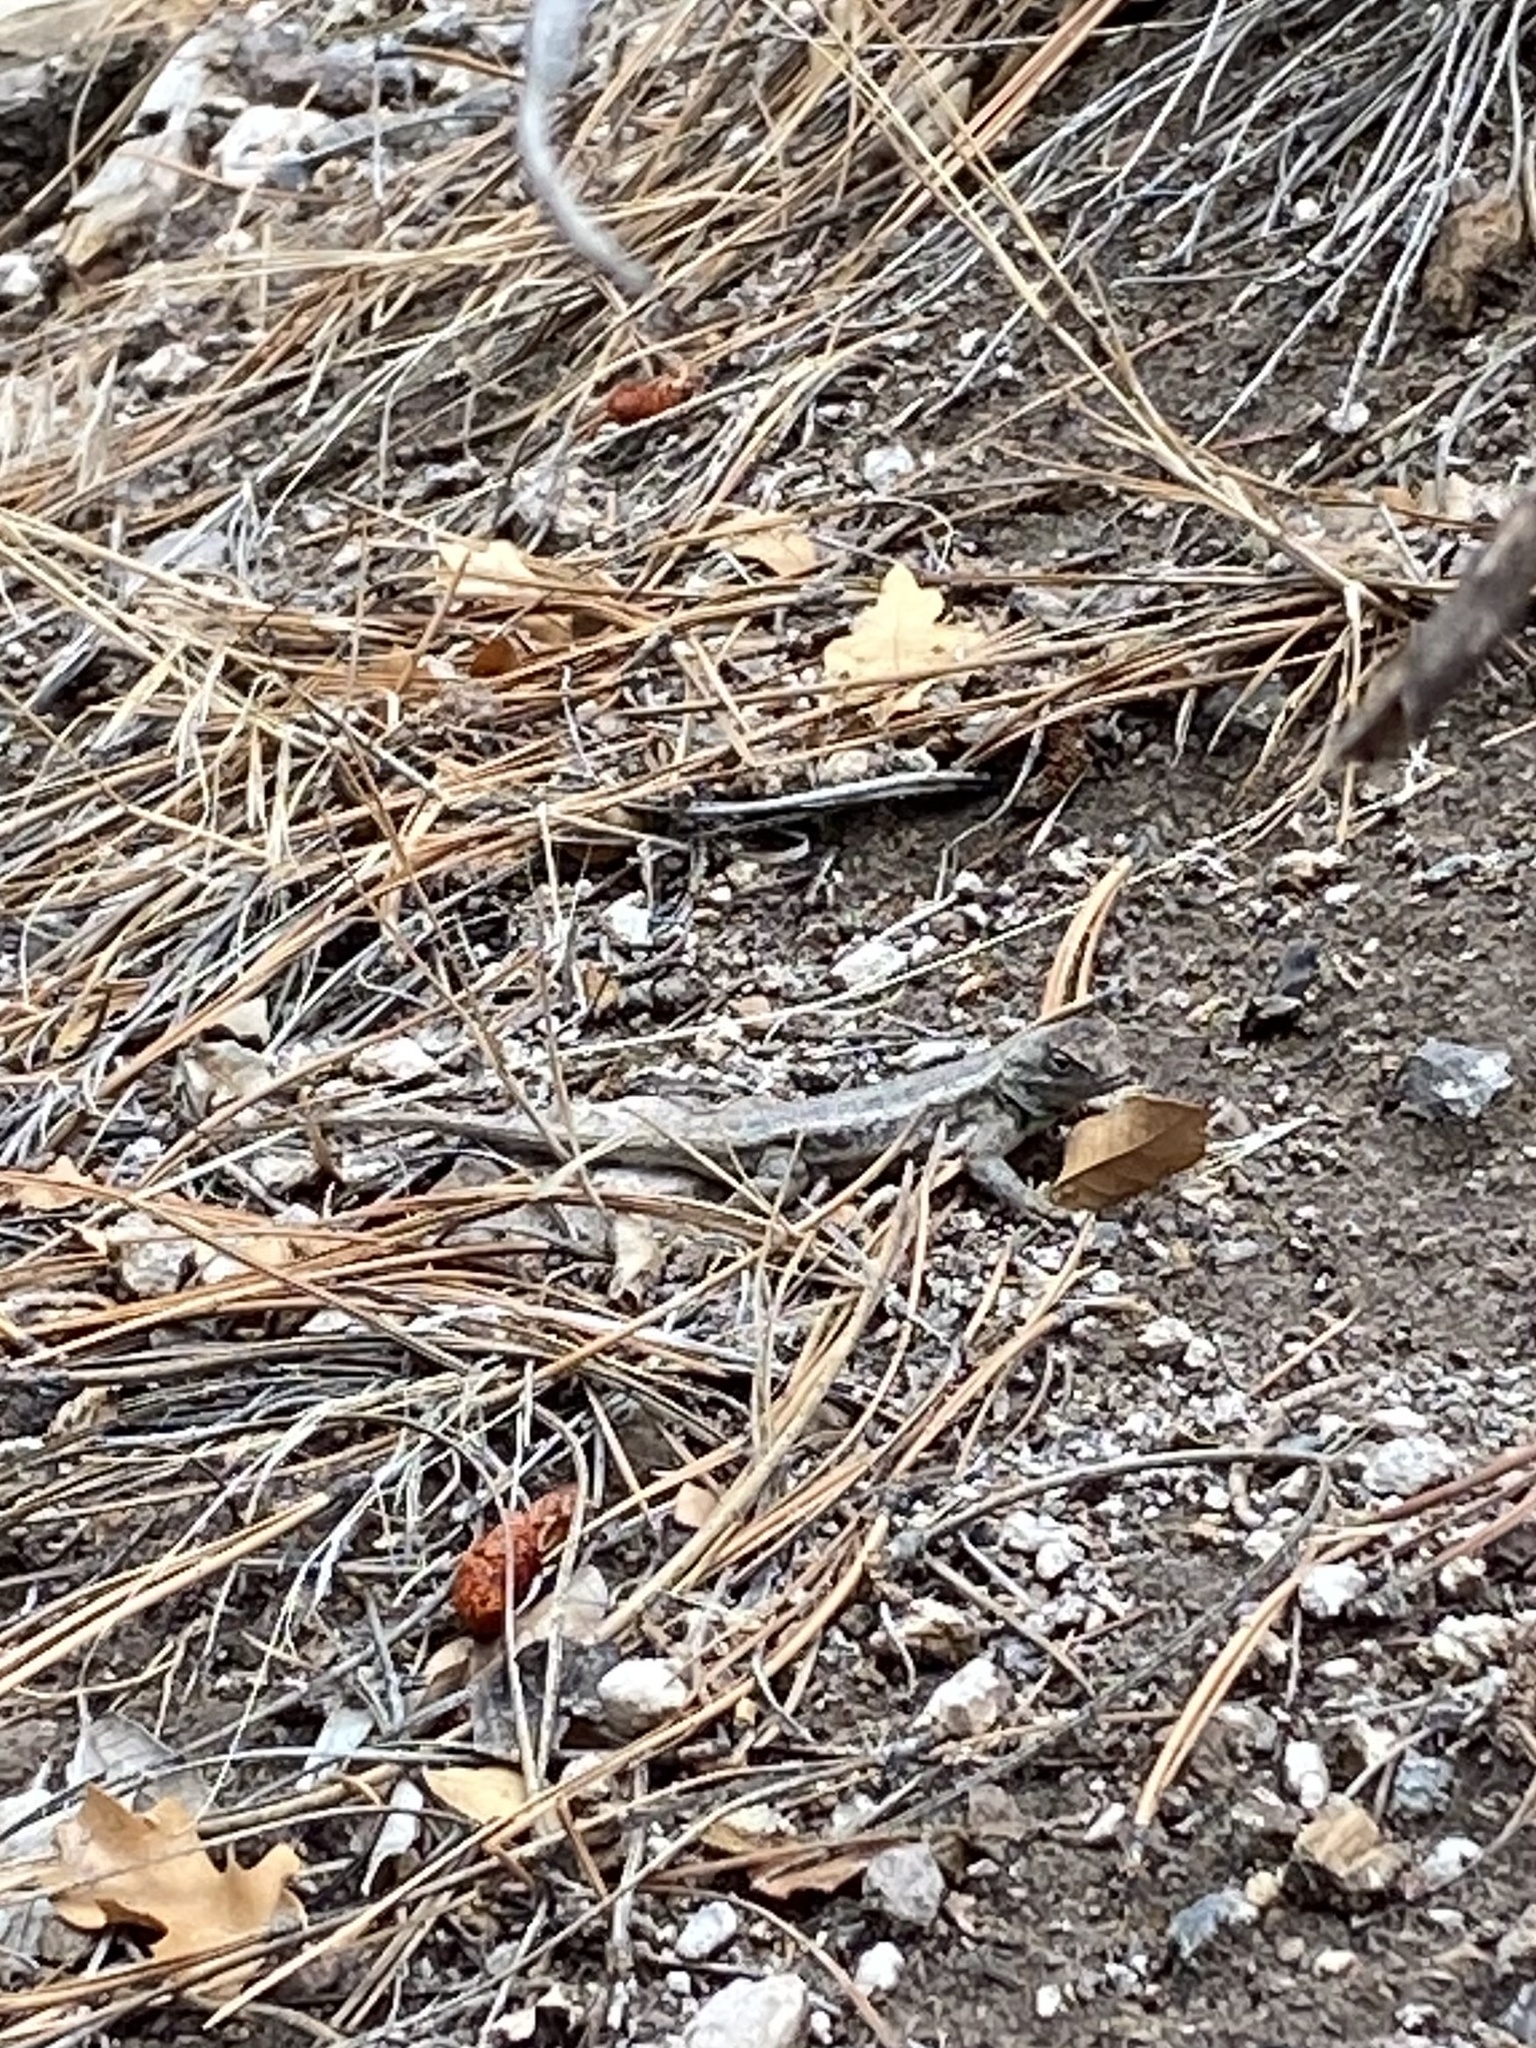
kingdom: Animalia
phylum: Chordata
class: Squamata
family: Phrynosomatidae
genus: Sceloporus
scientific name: Sceloporus
